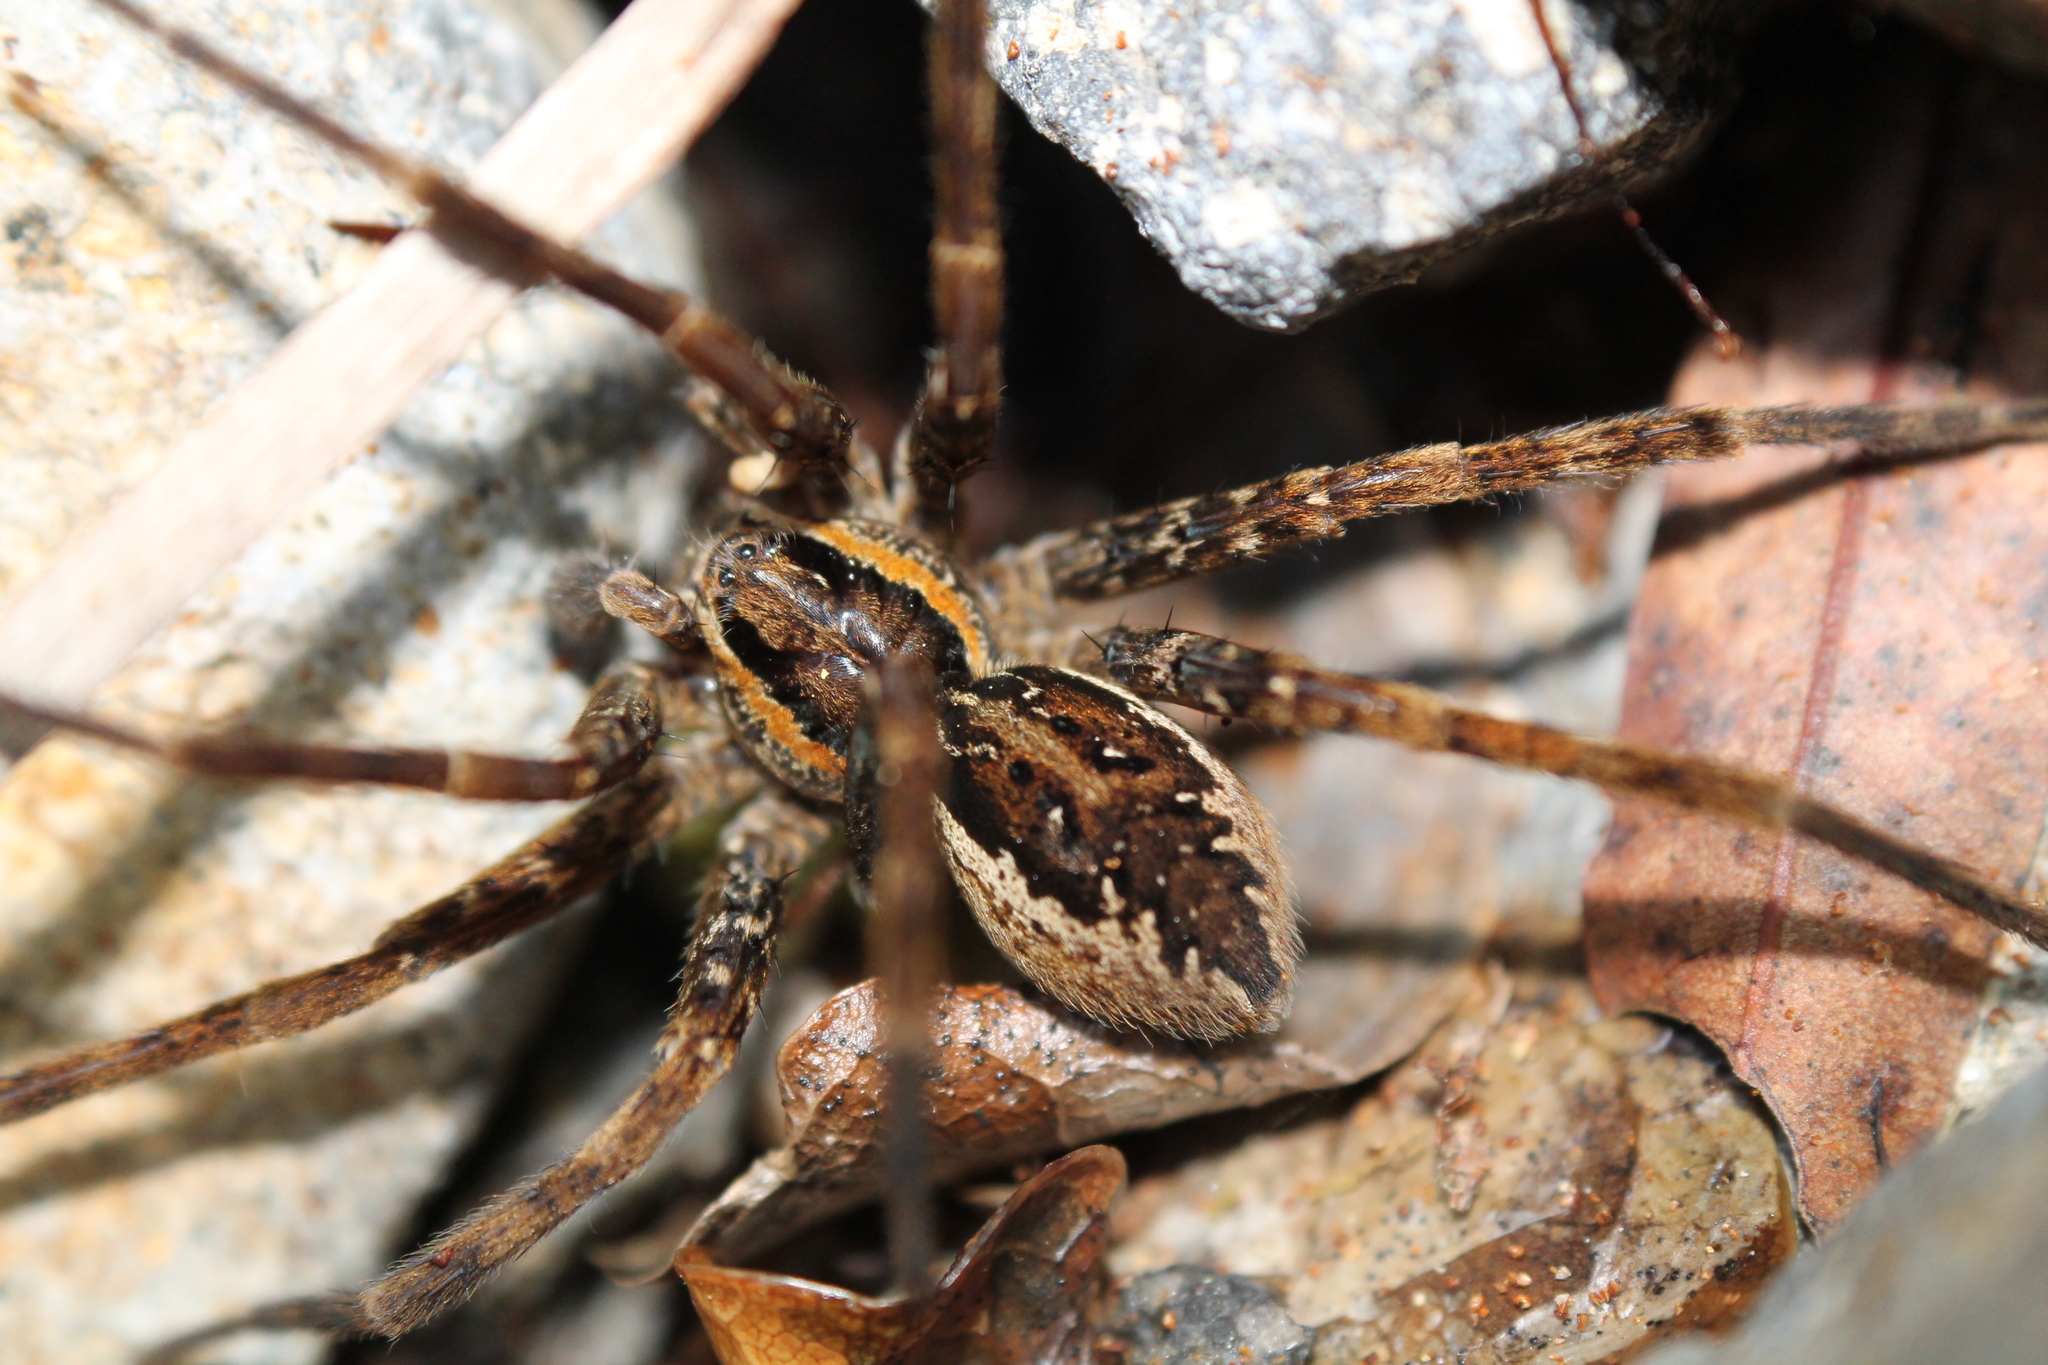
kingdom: Animalia
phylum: Arthropoda
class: Arachnida
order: Araneae
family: Pisauridae
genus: Dolomedes
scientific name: Dolomedes dondalei
